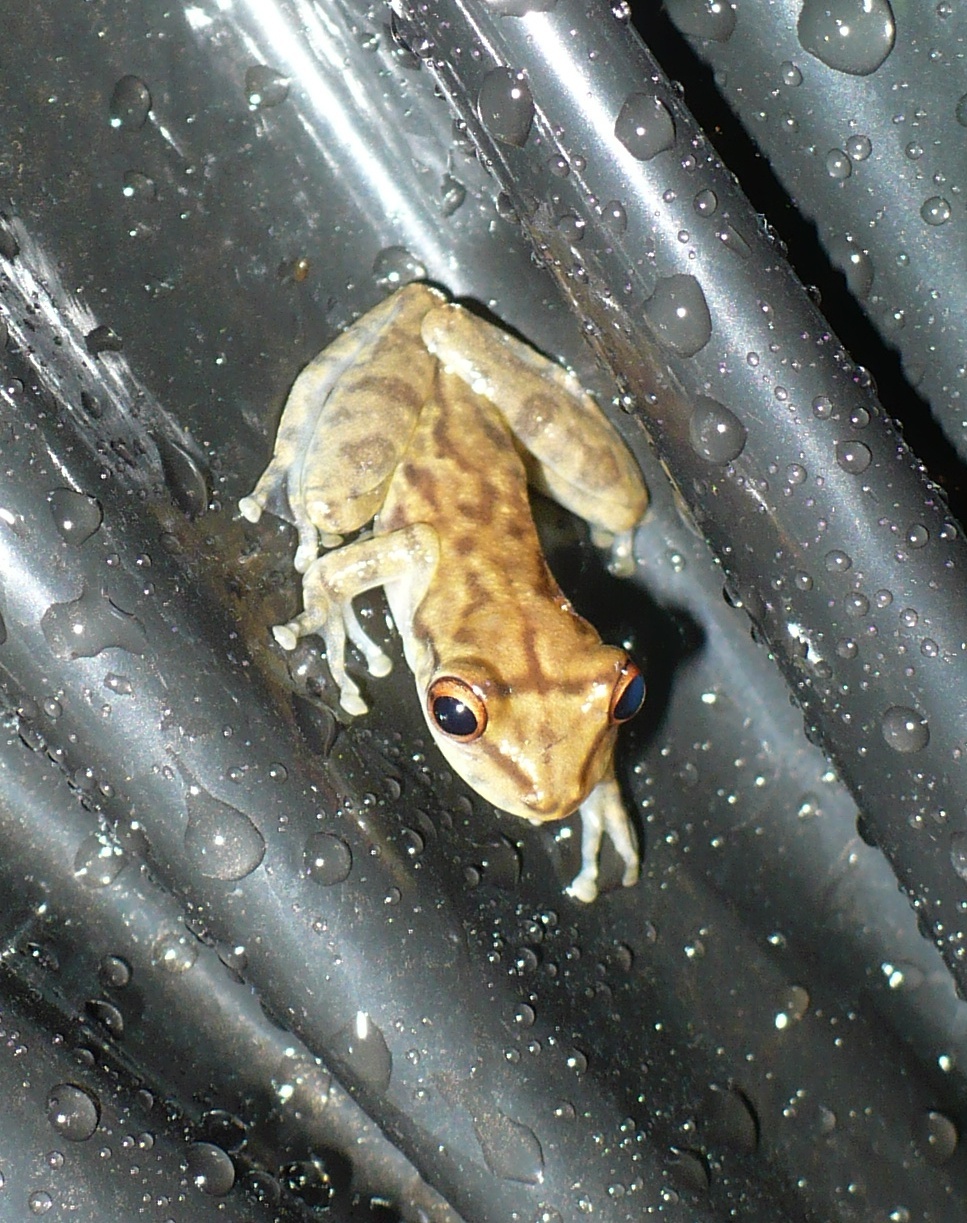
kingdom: Animalia
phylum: Chordata
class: Amphibia
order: Anura
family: Hylidae
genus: Scinax
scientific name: Scinax elaeochroa
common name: Sipurio snouted treefrog
